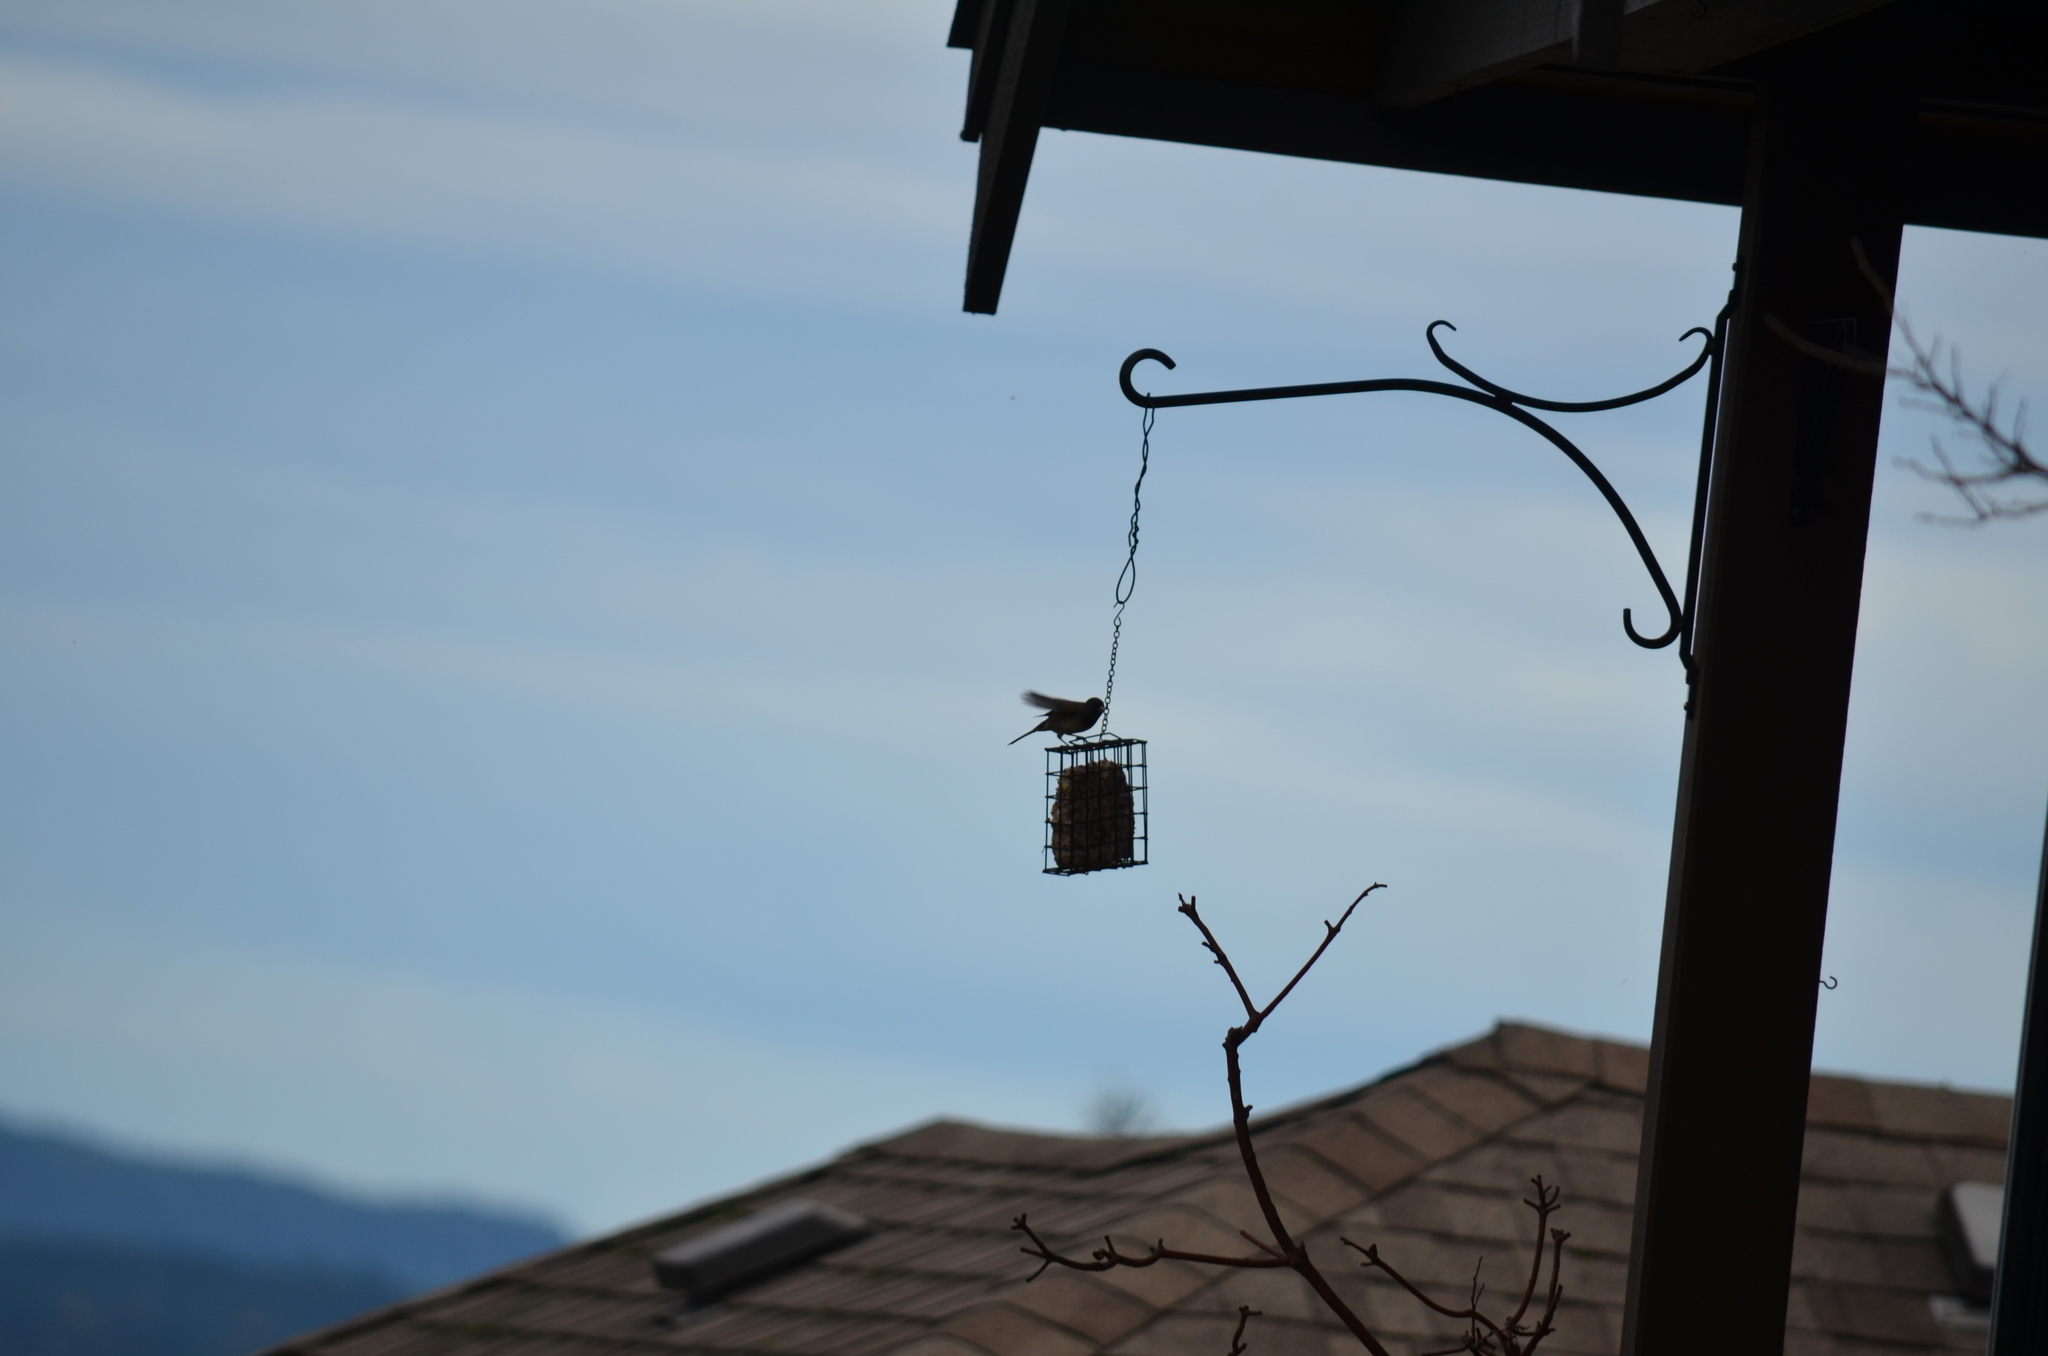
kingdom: Animalia
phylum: Chordata
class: Aves
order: Passeriformes
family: Passerellidae
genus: Junco
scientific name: Junco hyemalis
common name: Dark-eyed junco
